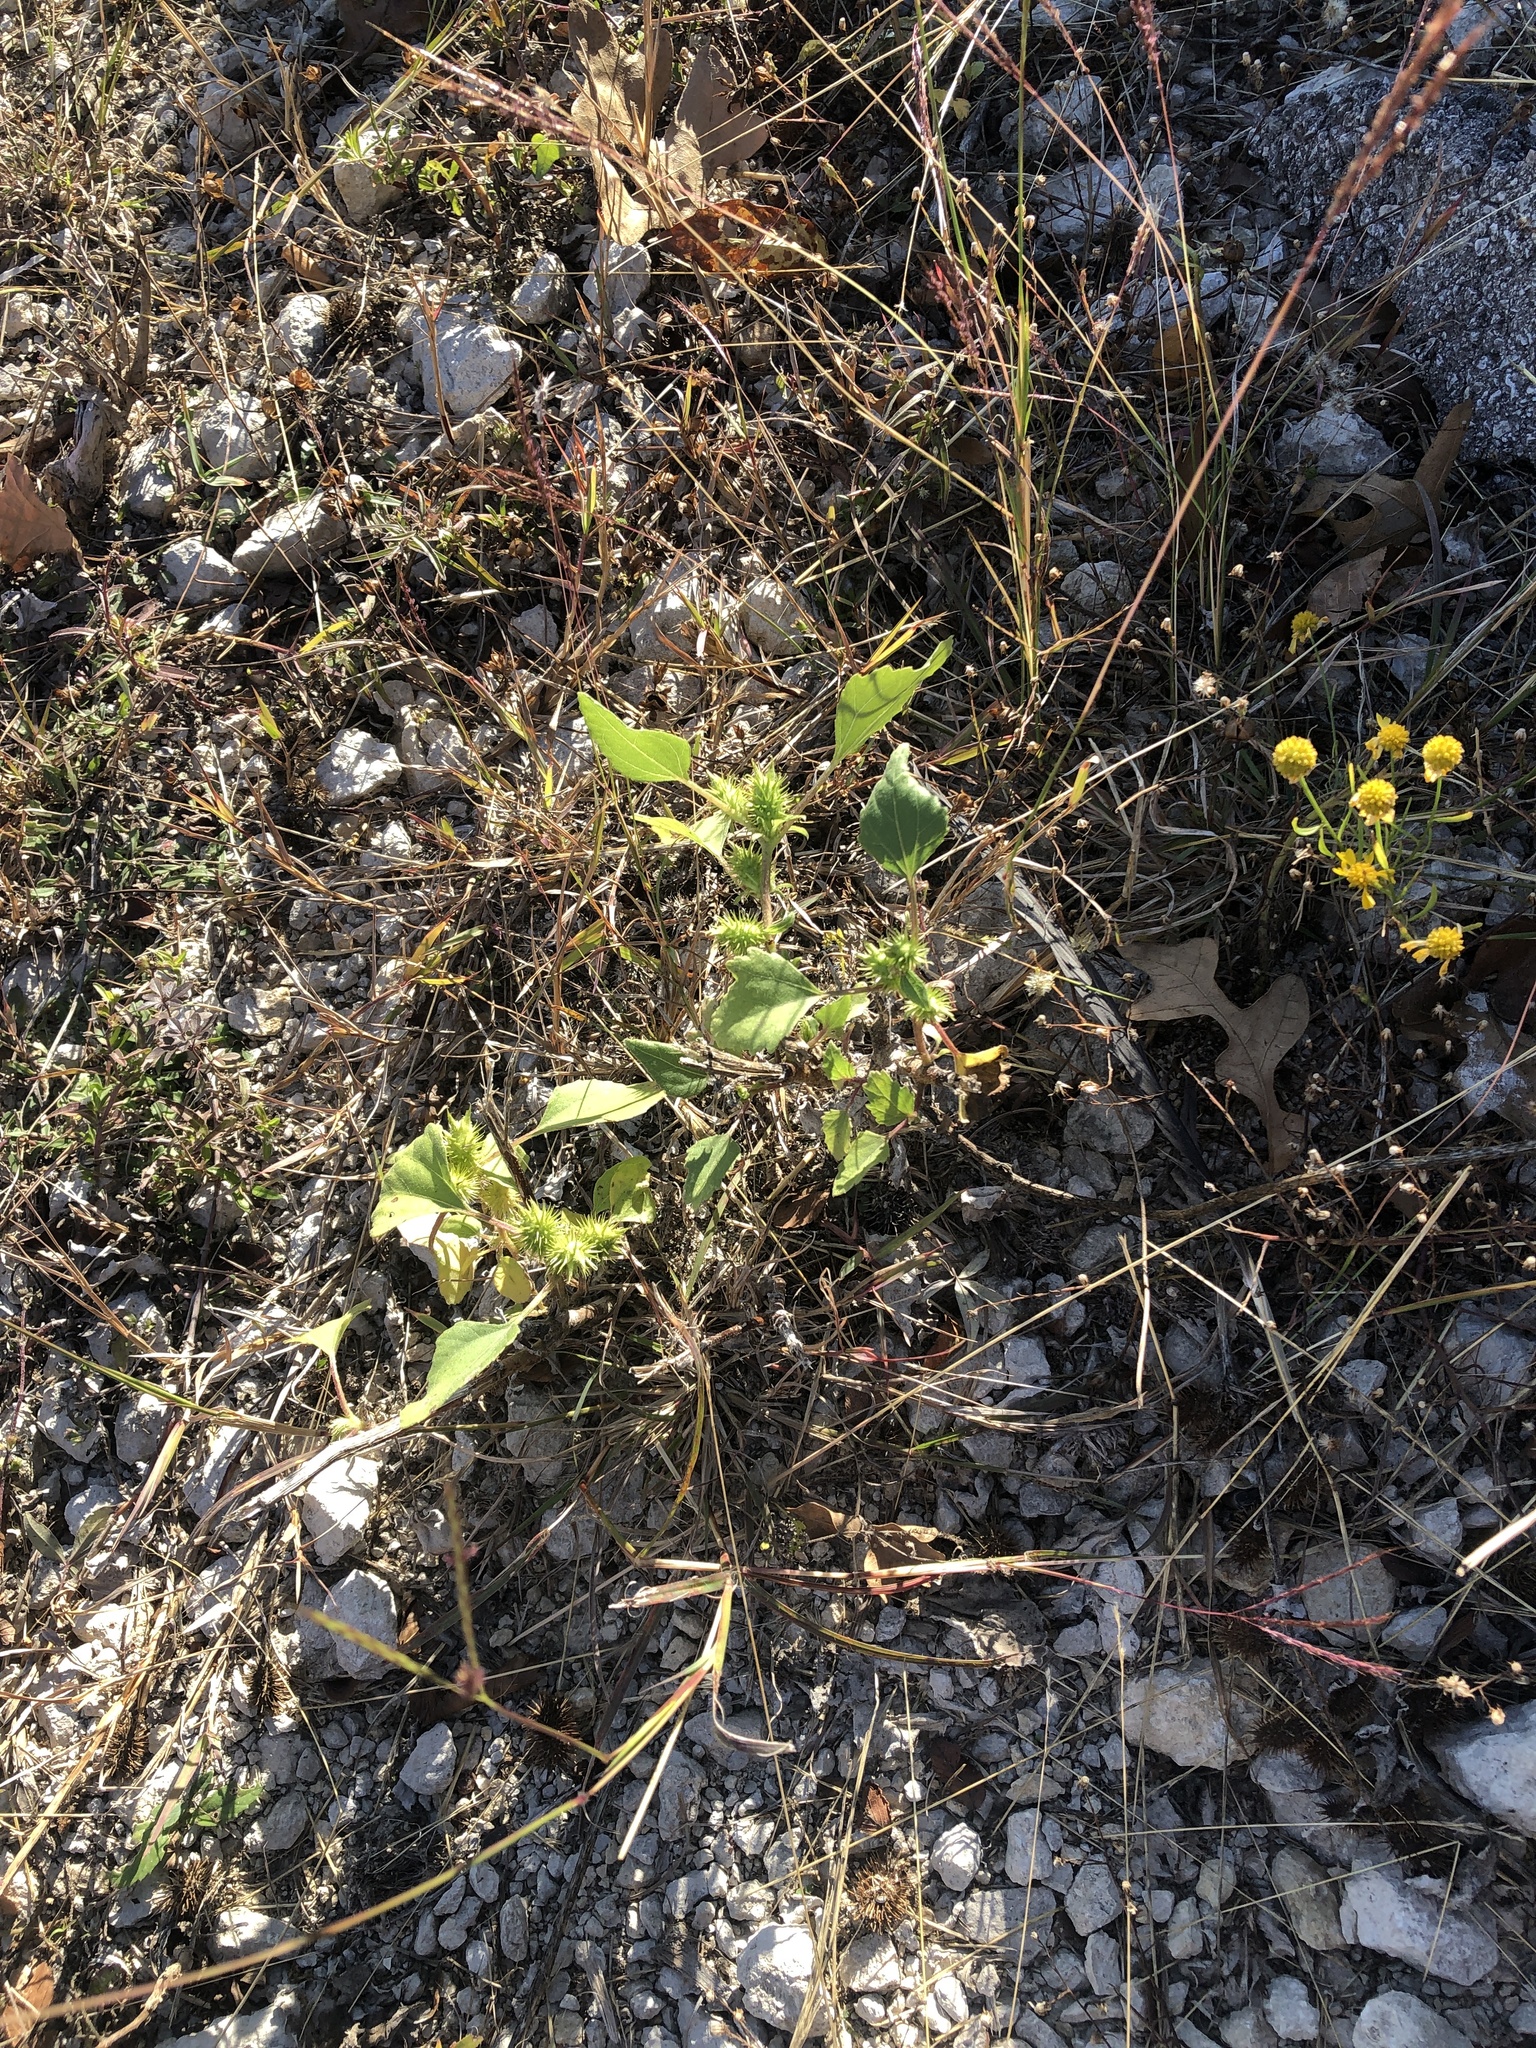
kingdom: Plantae
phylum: Tracheophyta
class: Magnoliopsida
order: Asterales
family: Asteraceae
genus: Xanthium
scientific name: Xanthium strumarium
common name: Rough cocklebur
